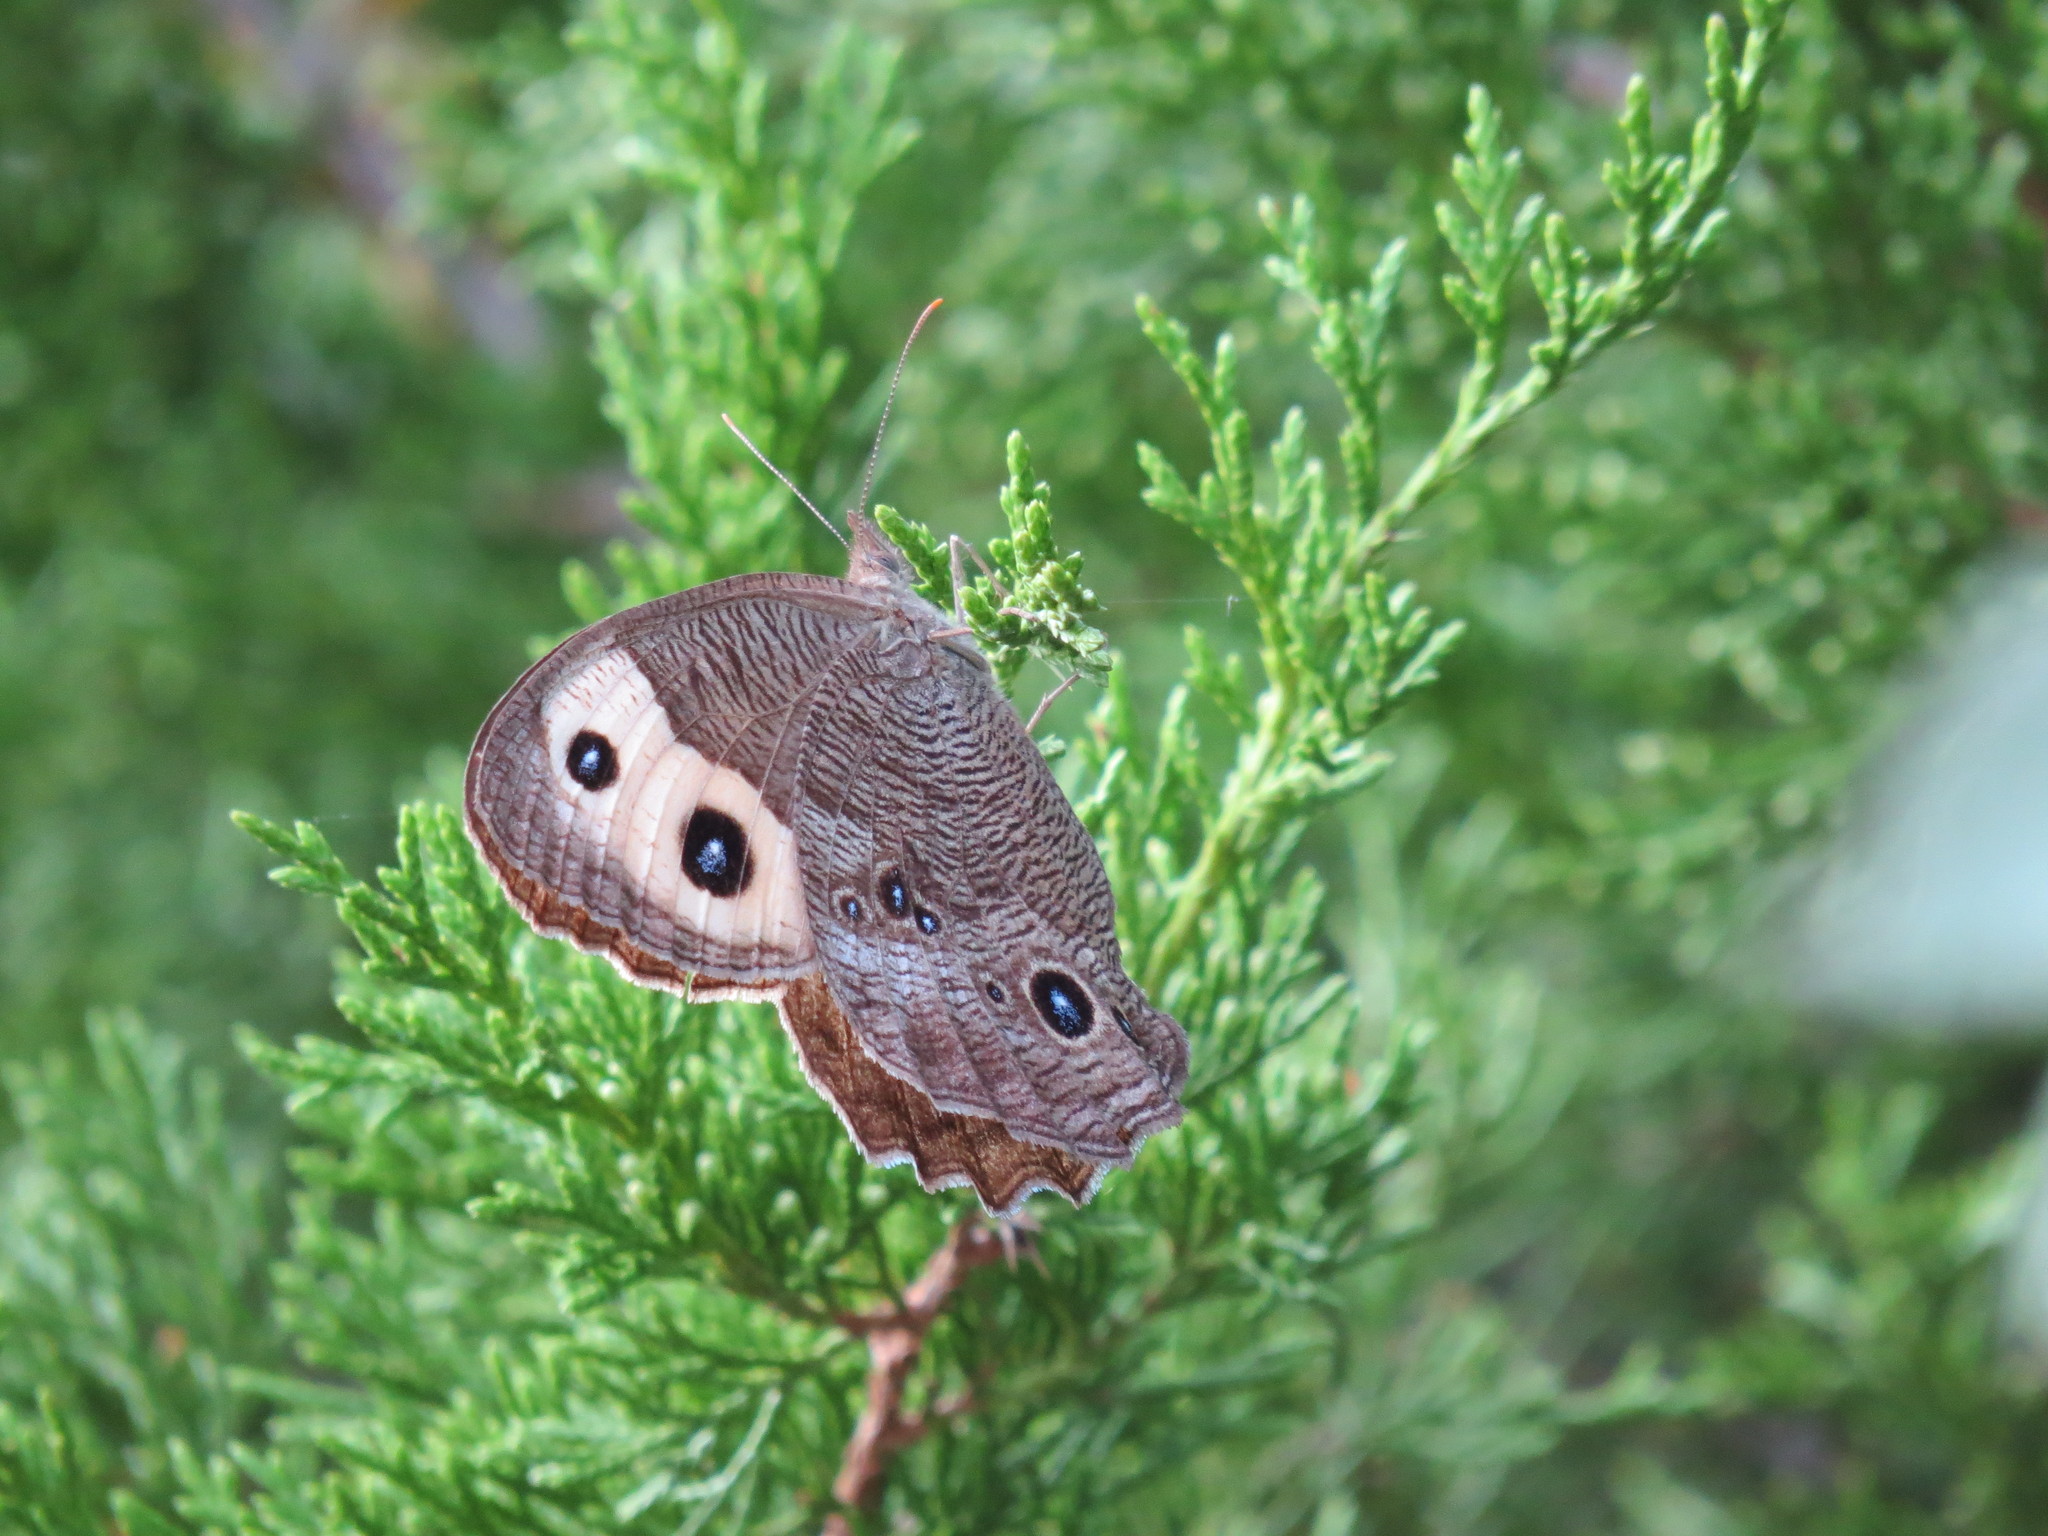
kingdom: Animalia
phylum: Arthropoda
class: Insecta
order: Lepidoptera
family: Nymphalidae
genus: Cercyonis
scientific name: Cercyonis pegala
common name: Common wood-nymph
